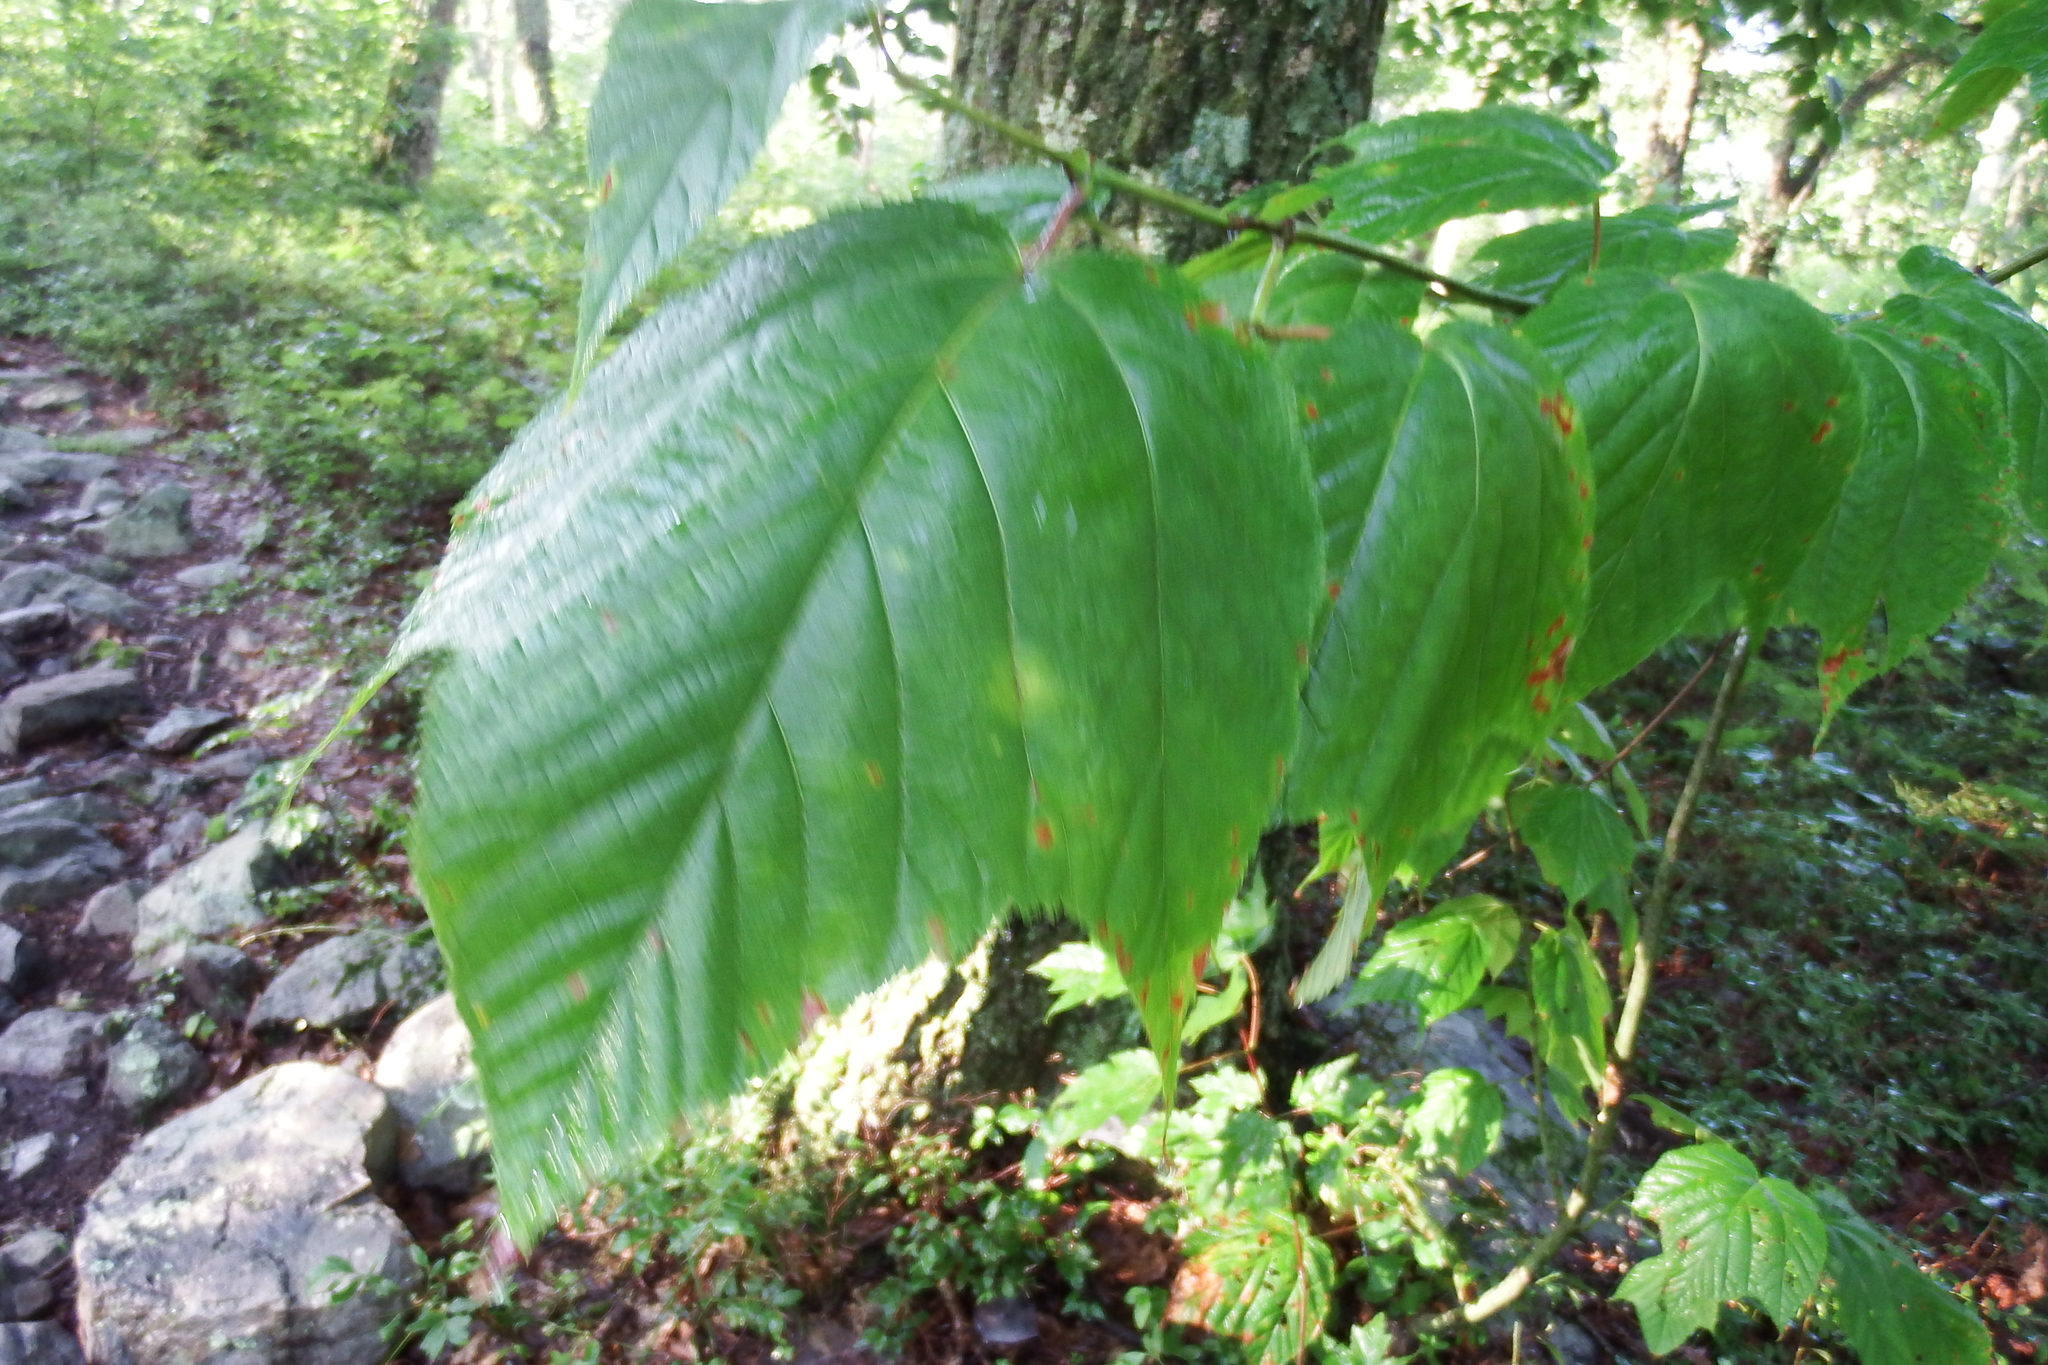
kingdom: Plantae
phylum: Tracheophyta
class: Magnoliopsida
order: Sapindales
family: Sapindaceae
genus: Acer
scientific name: Acer pensylvanicum
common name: Moosewood
